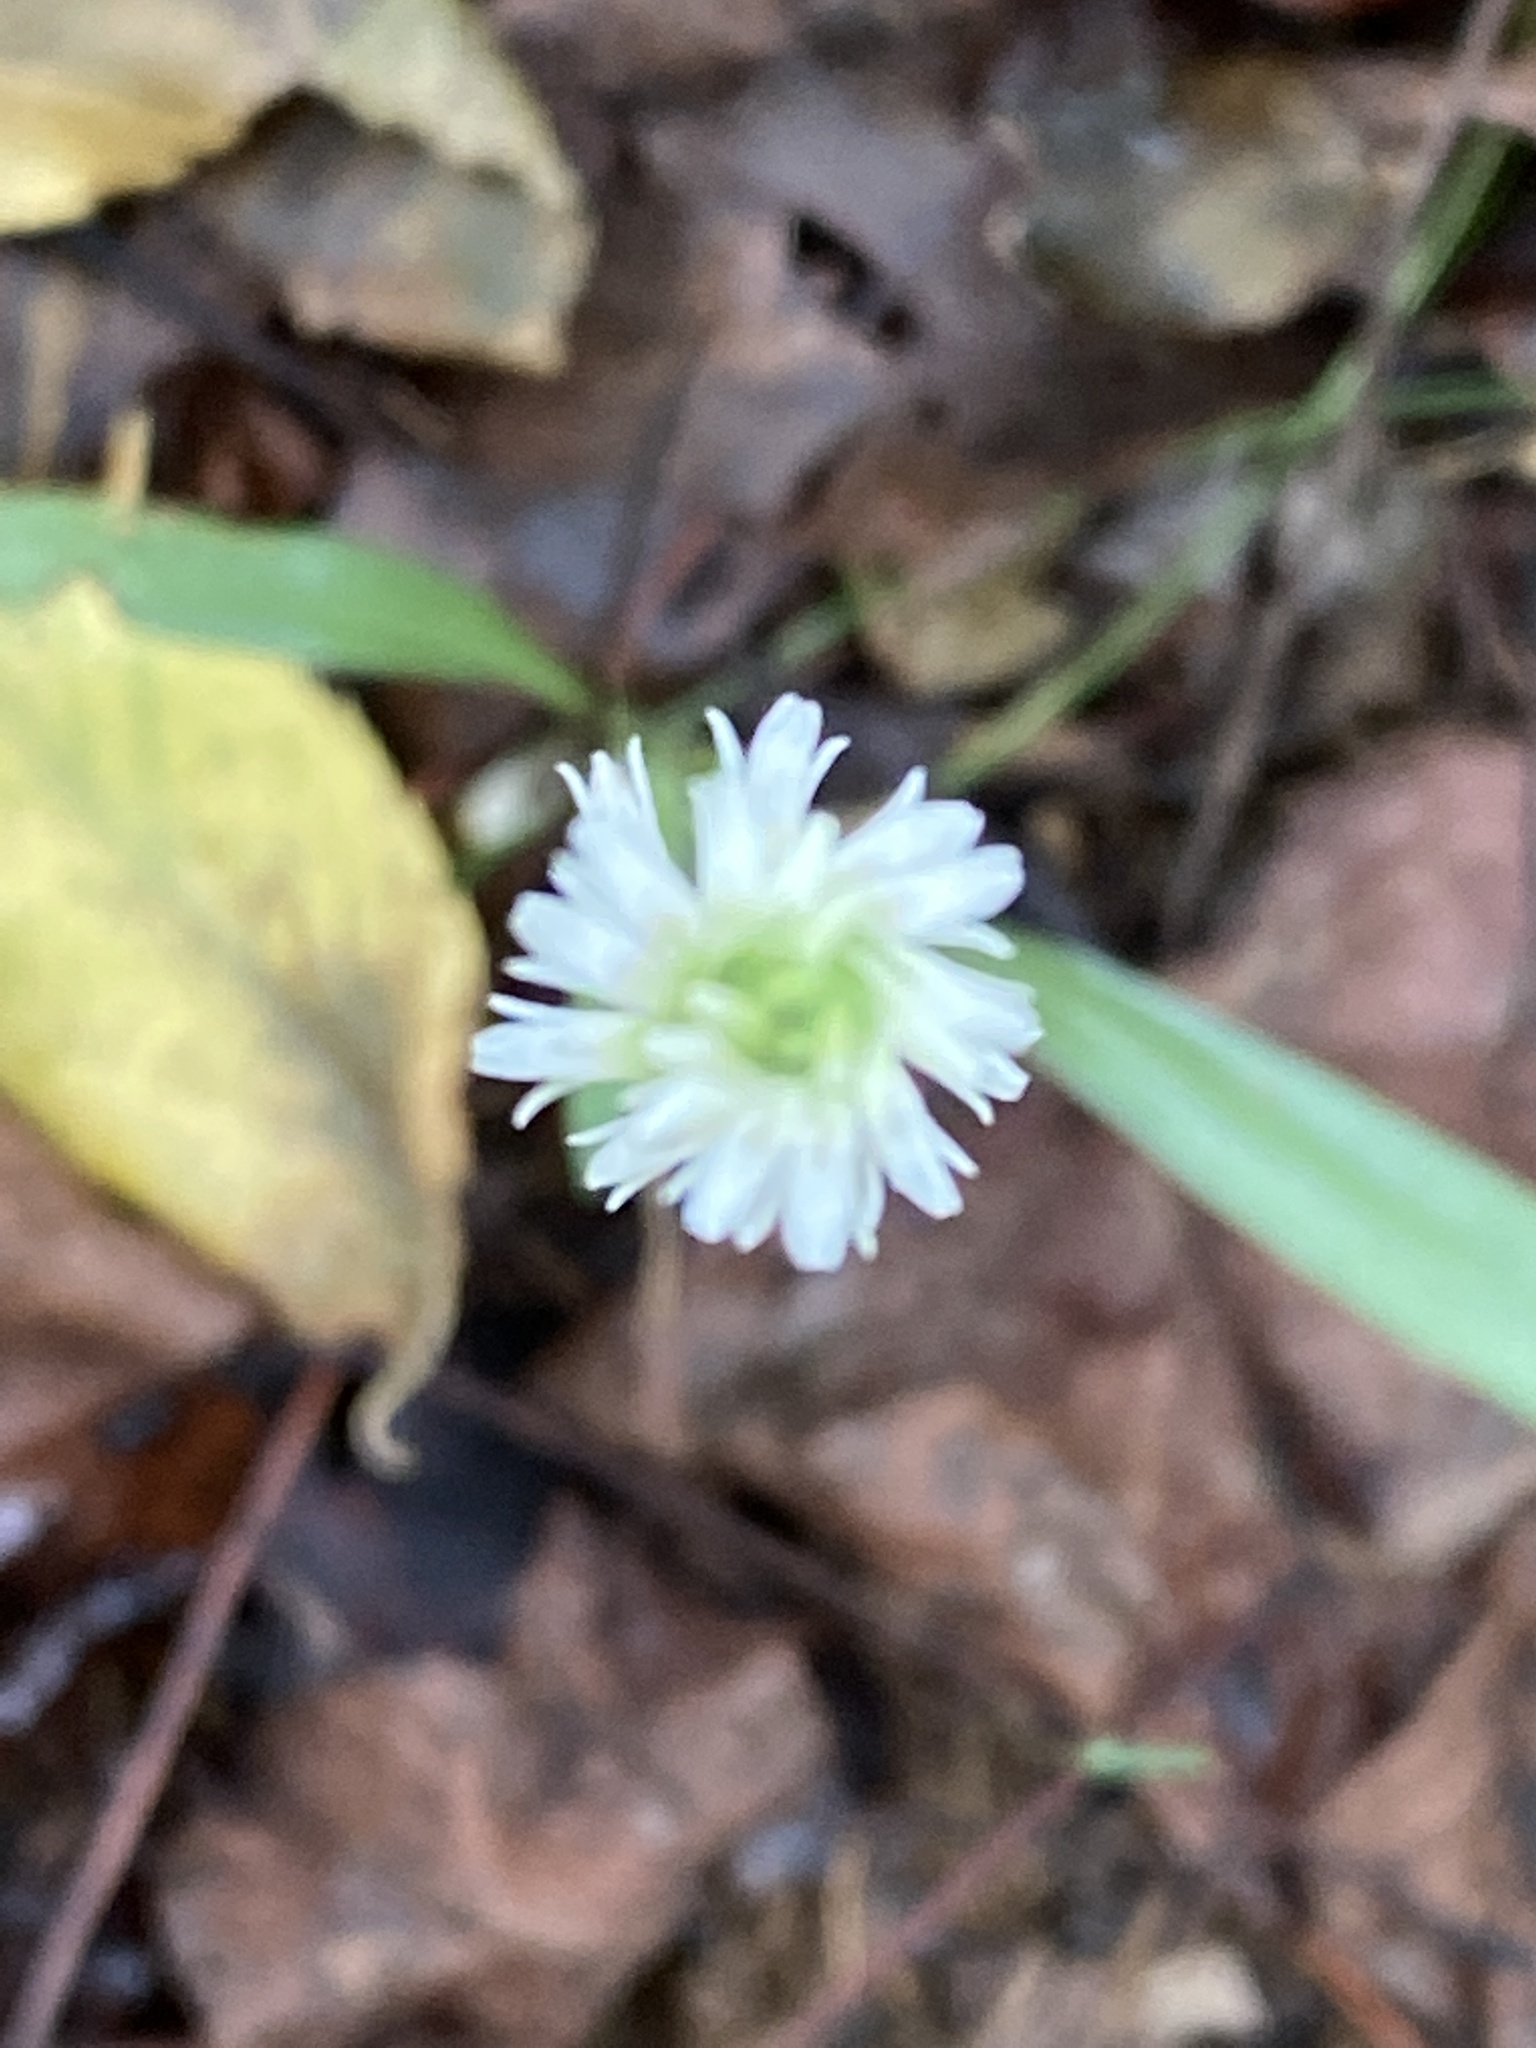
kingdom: Plantae
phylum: Tracheophyta
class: Liliopsida
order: Asparagales
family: Orchidaceae
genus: Spiranthes
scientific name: Spiranthes ovalis
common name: October ladies'-tresses
